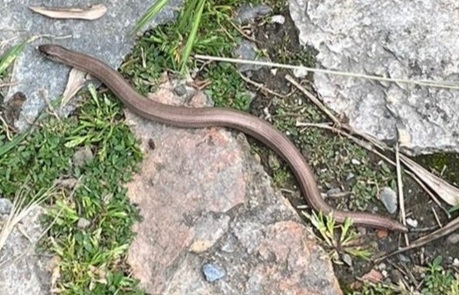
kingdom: Animalia
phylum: Chordata
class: Squamata
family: Anguidae
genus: Anguis
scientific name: Anguis veronensis
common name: Italian slow worm
